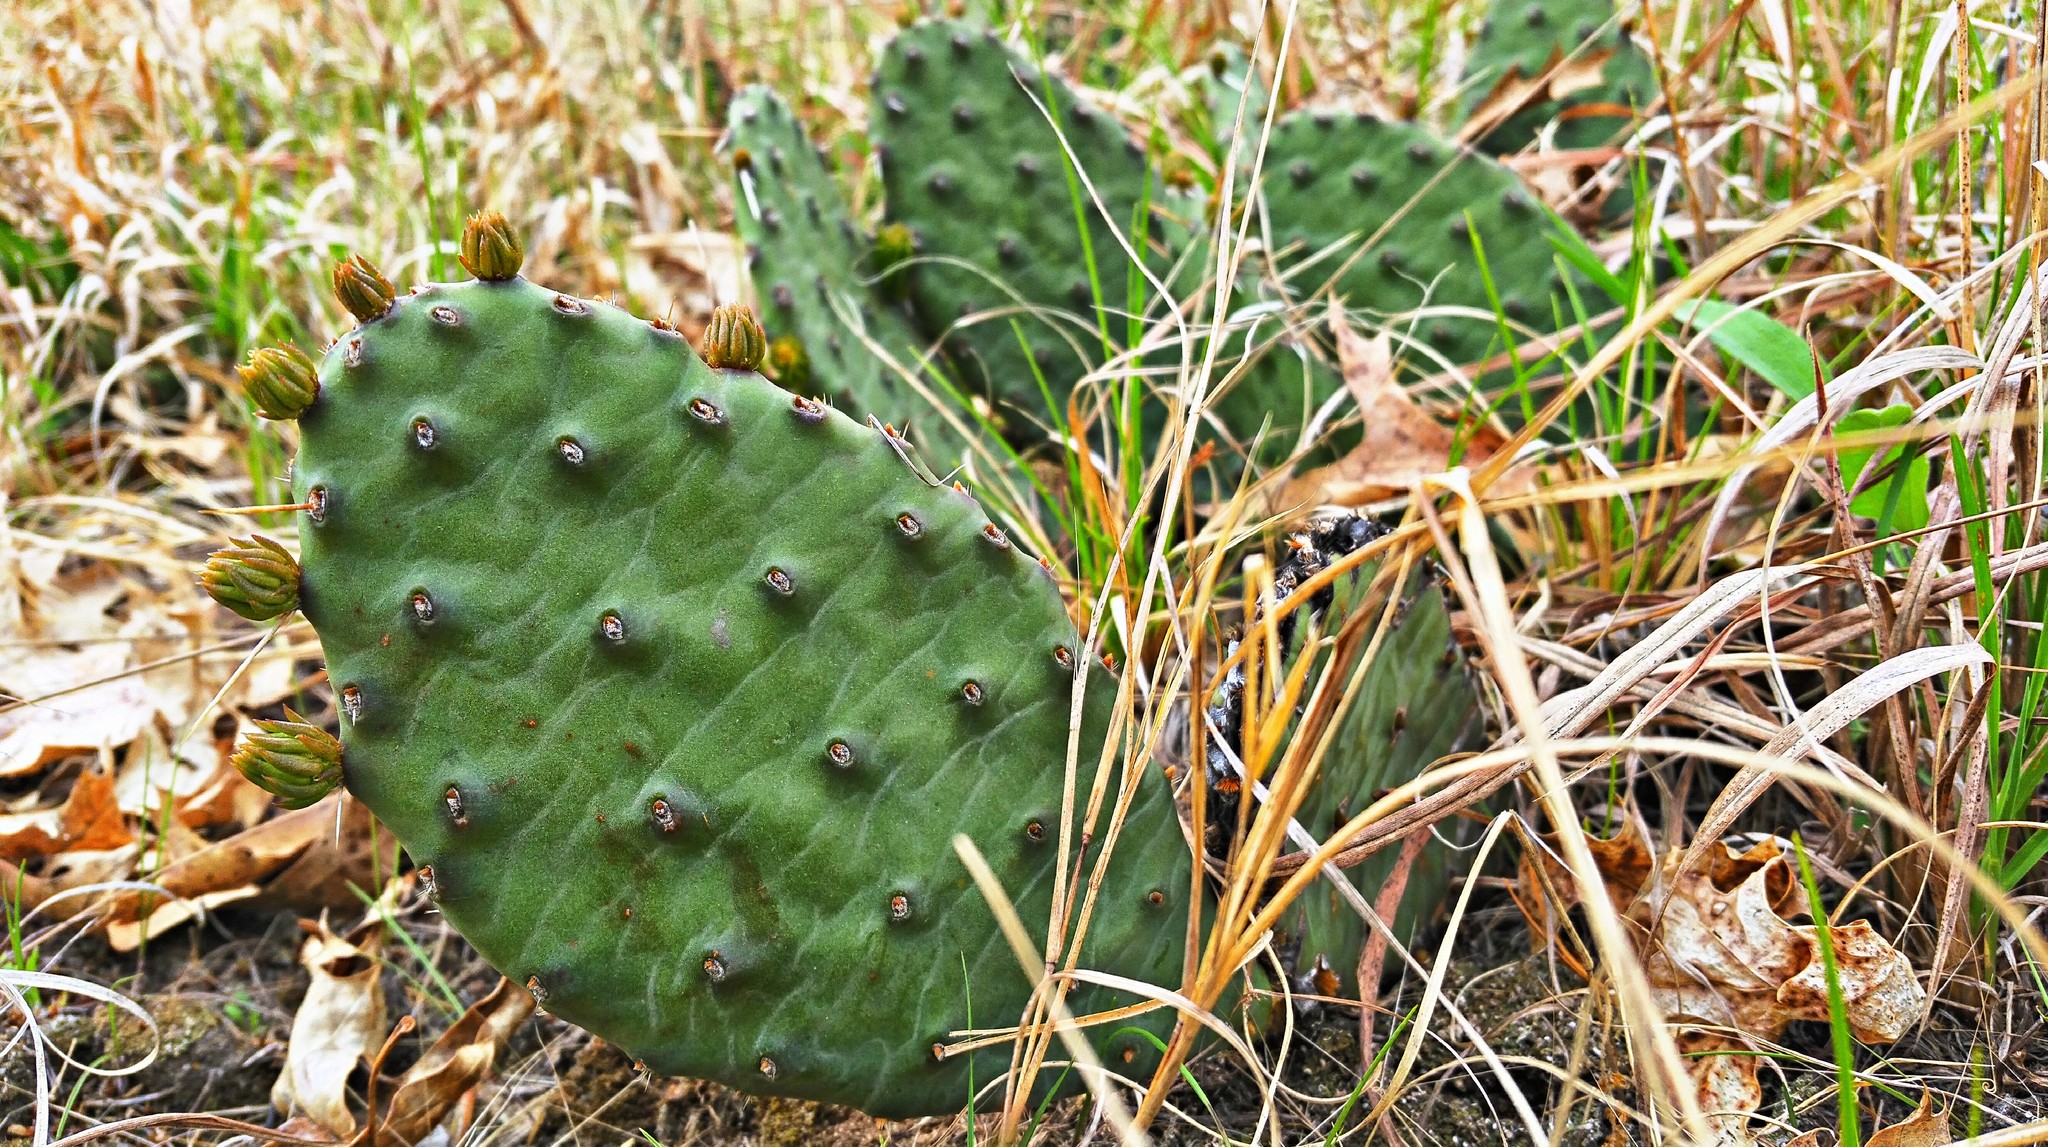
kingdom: Plantae
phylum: Tracheophyta
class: Magnoliopsida
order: Caryophyllales
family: Cactaceae
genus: Opuntia
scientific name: Opuntia humifusa
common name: Eastern prickly-pear
